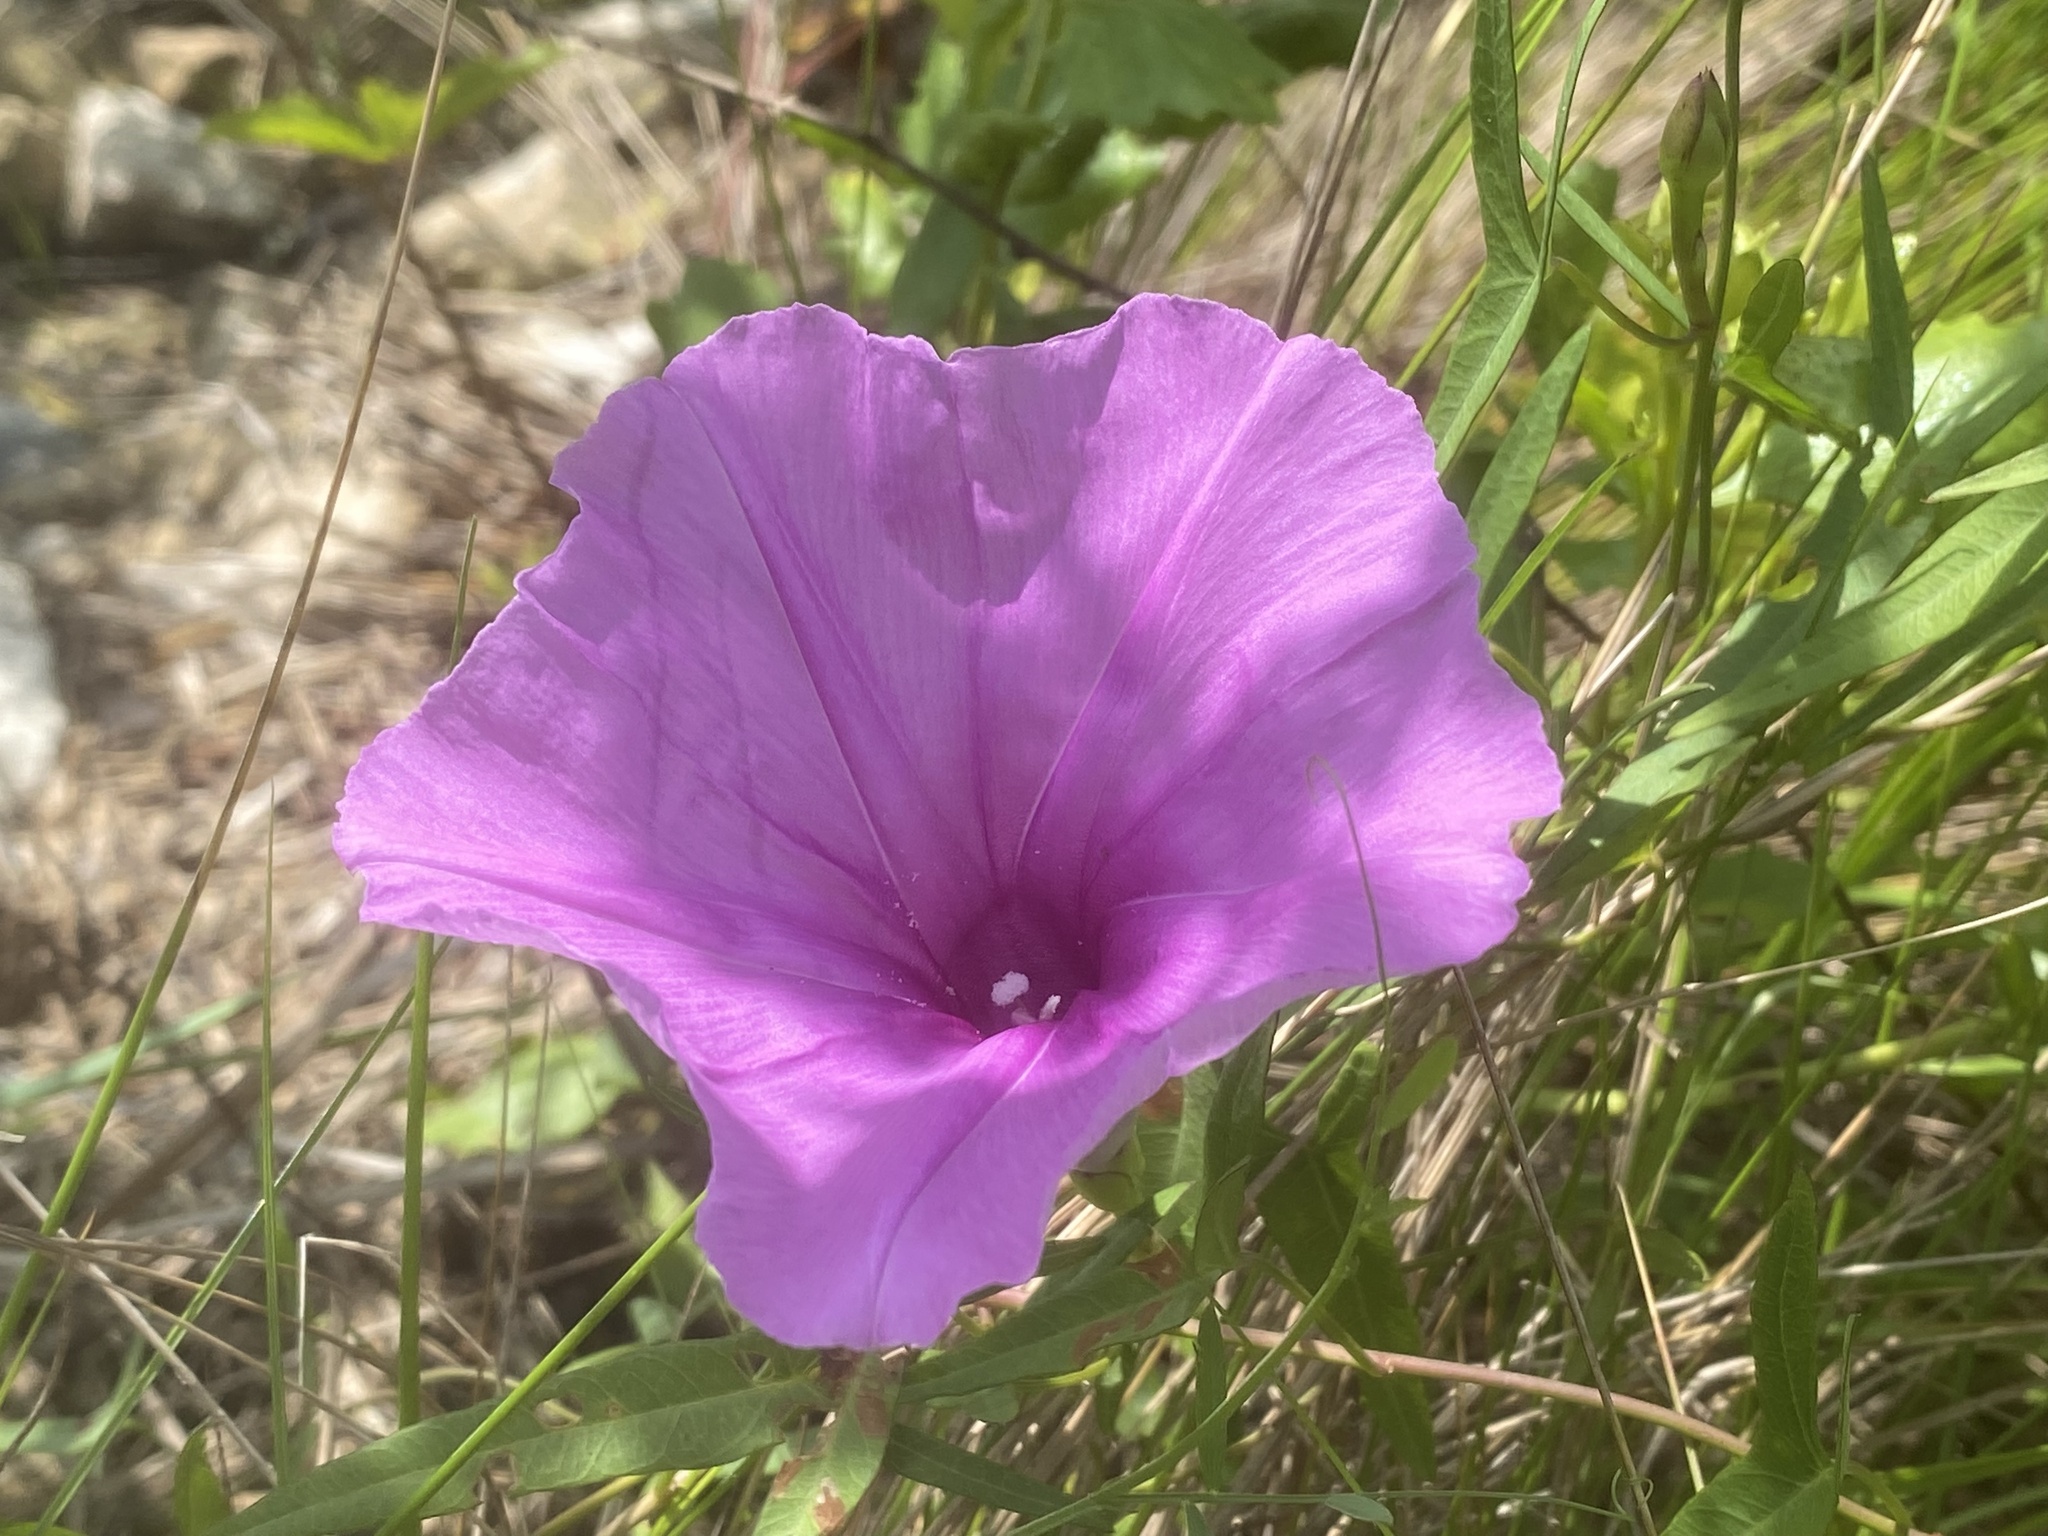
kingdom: Plantae
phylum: Tracheophyta
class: Magnoliopsida
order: Solanales
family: Convolvulaceae
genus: Ipomoea
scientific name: Ipomoea sagittata
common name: Saltmarsh morning glory
